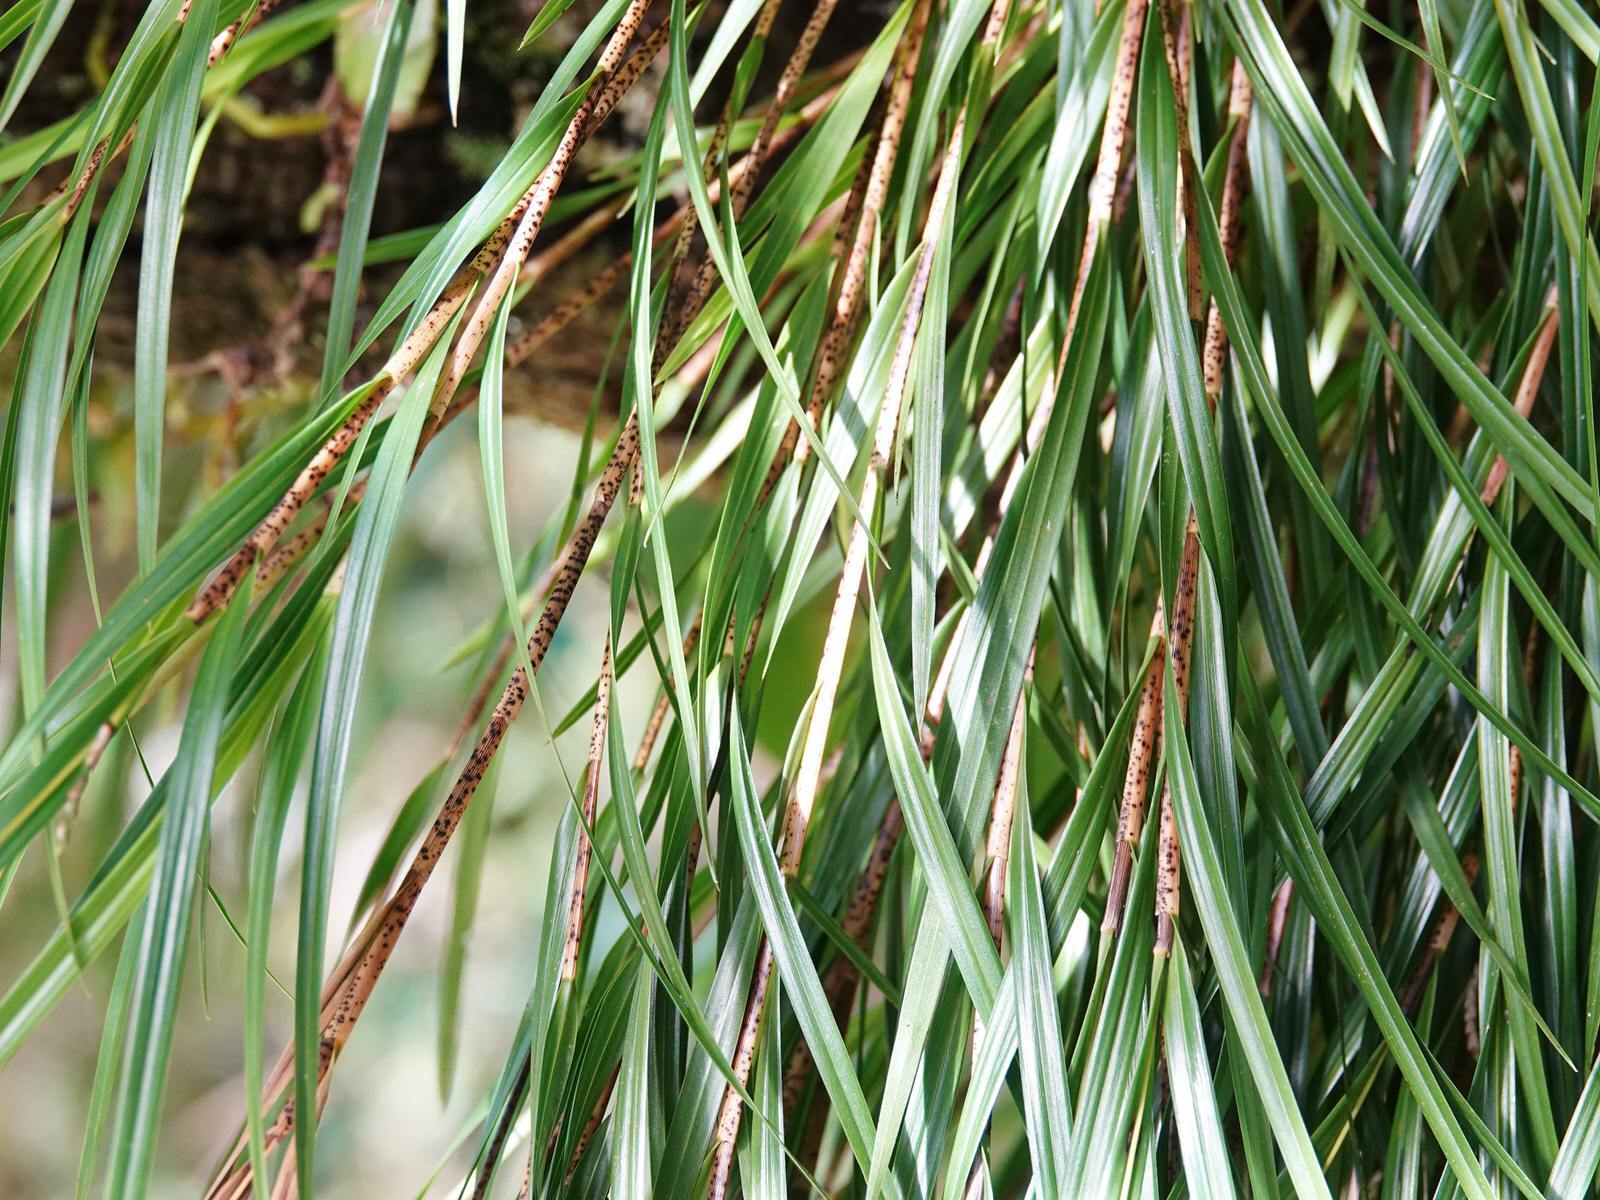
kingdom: Plantae
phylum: Tracheophyta
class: Liliopsida
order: Asparagales
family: Orchidaceae
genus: Earina
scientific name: Earina mucronata
